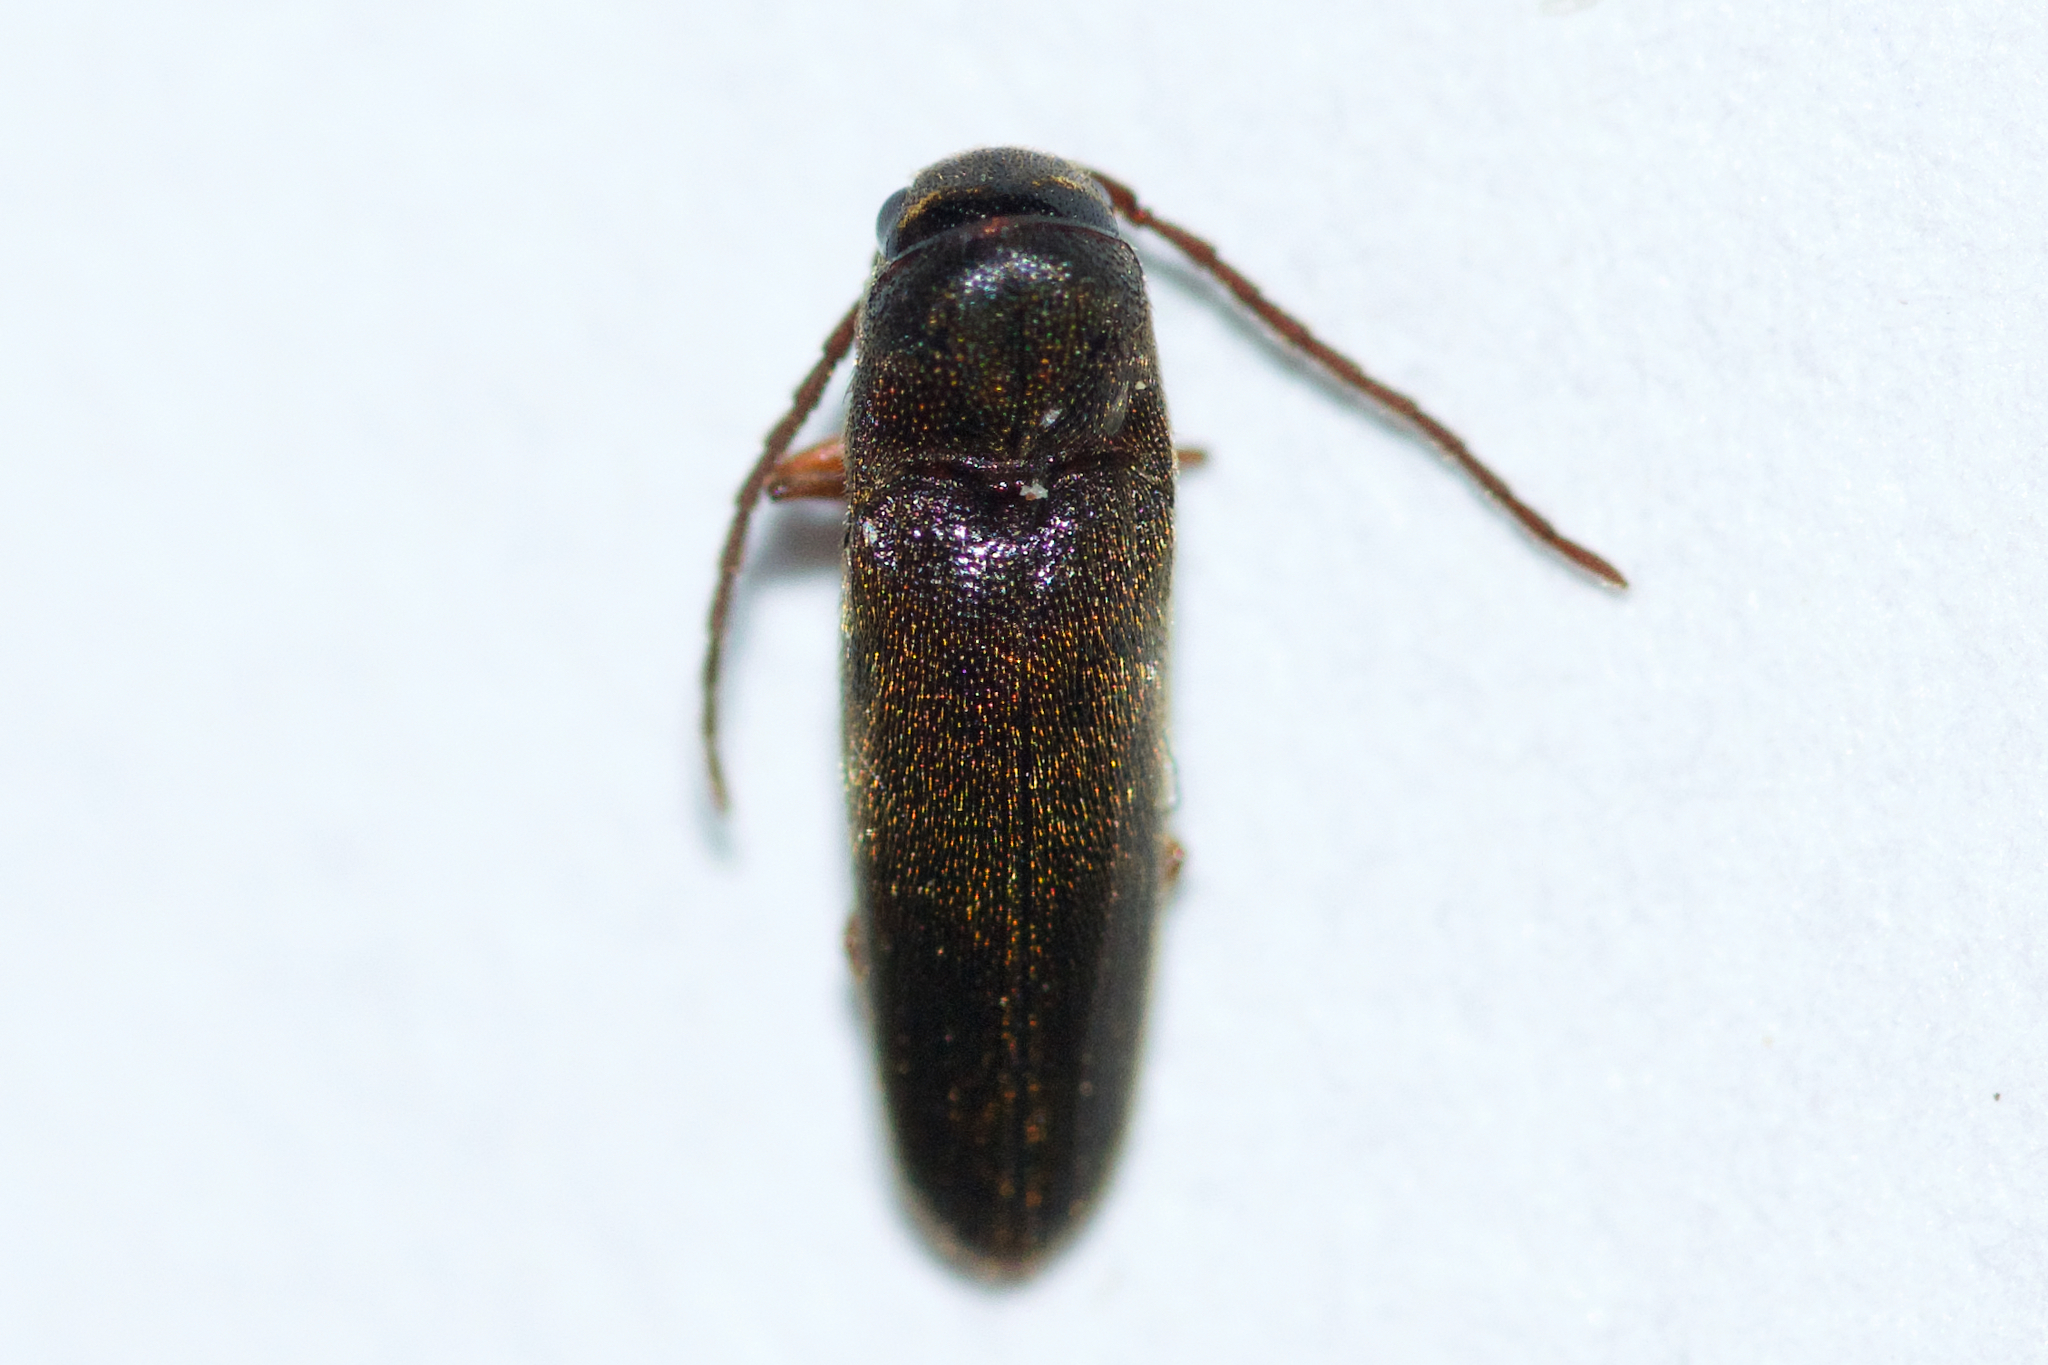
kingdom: Animalia
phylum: Arthropoda
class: Insecta
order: Coleoptera
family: Eucnemidae
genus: Dirrhagofarsus
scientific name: Dirrhagofarsus ernae
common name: Erna's false click beetle
